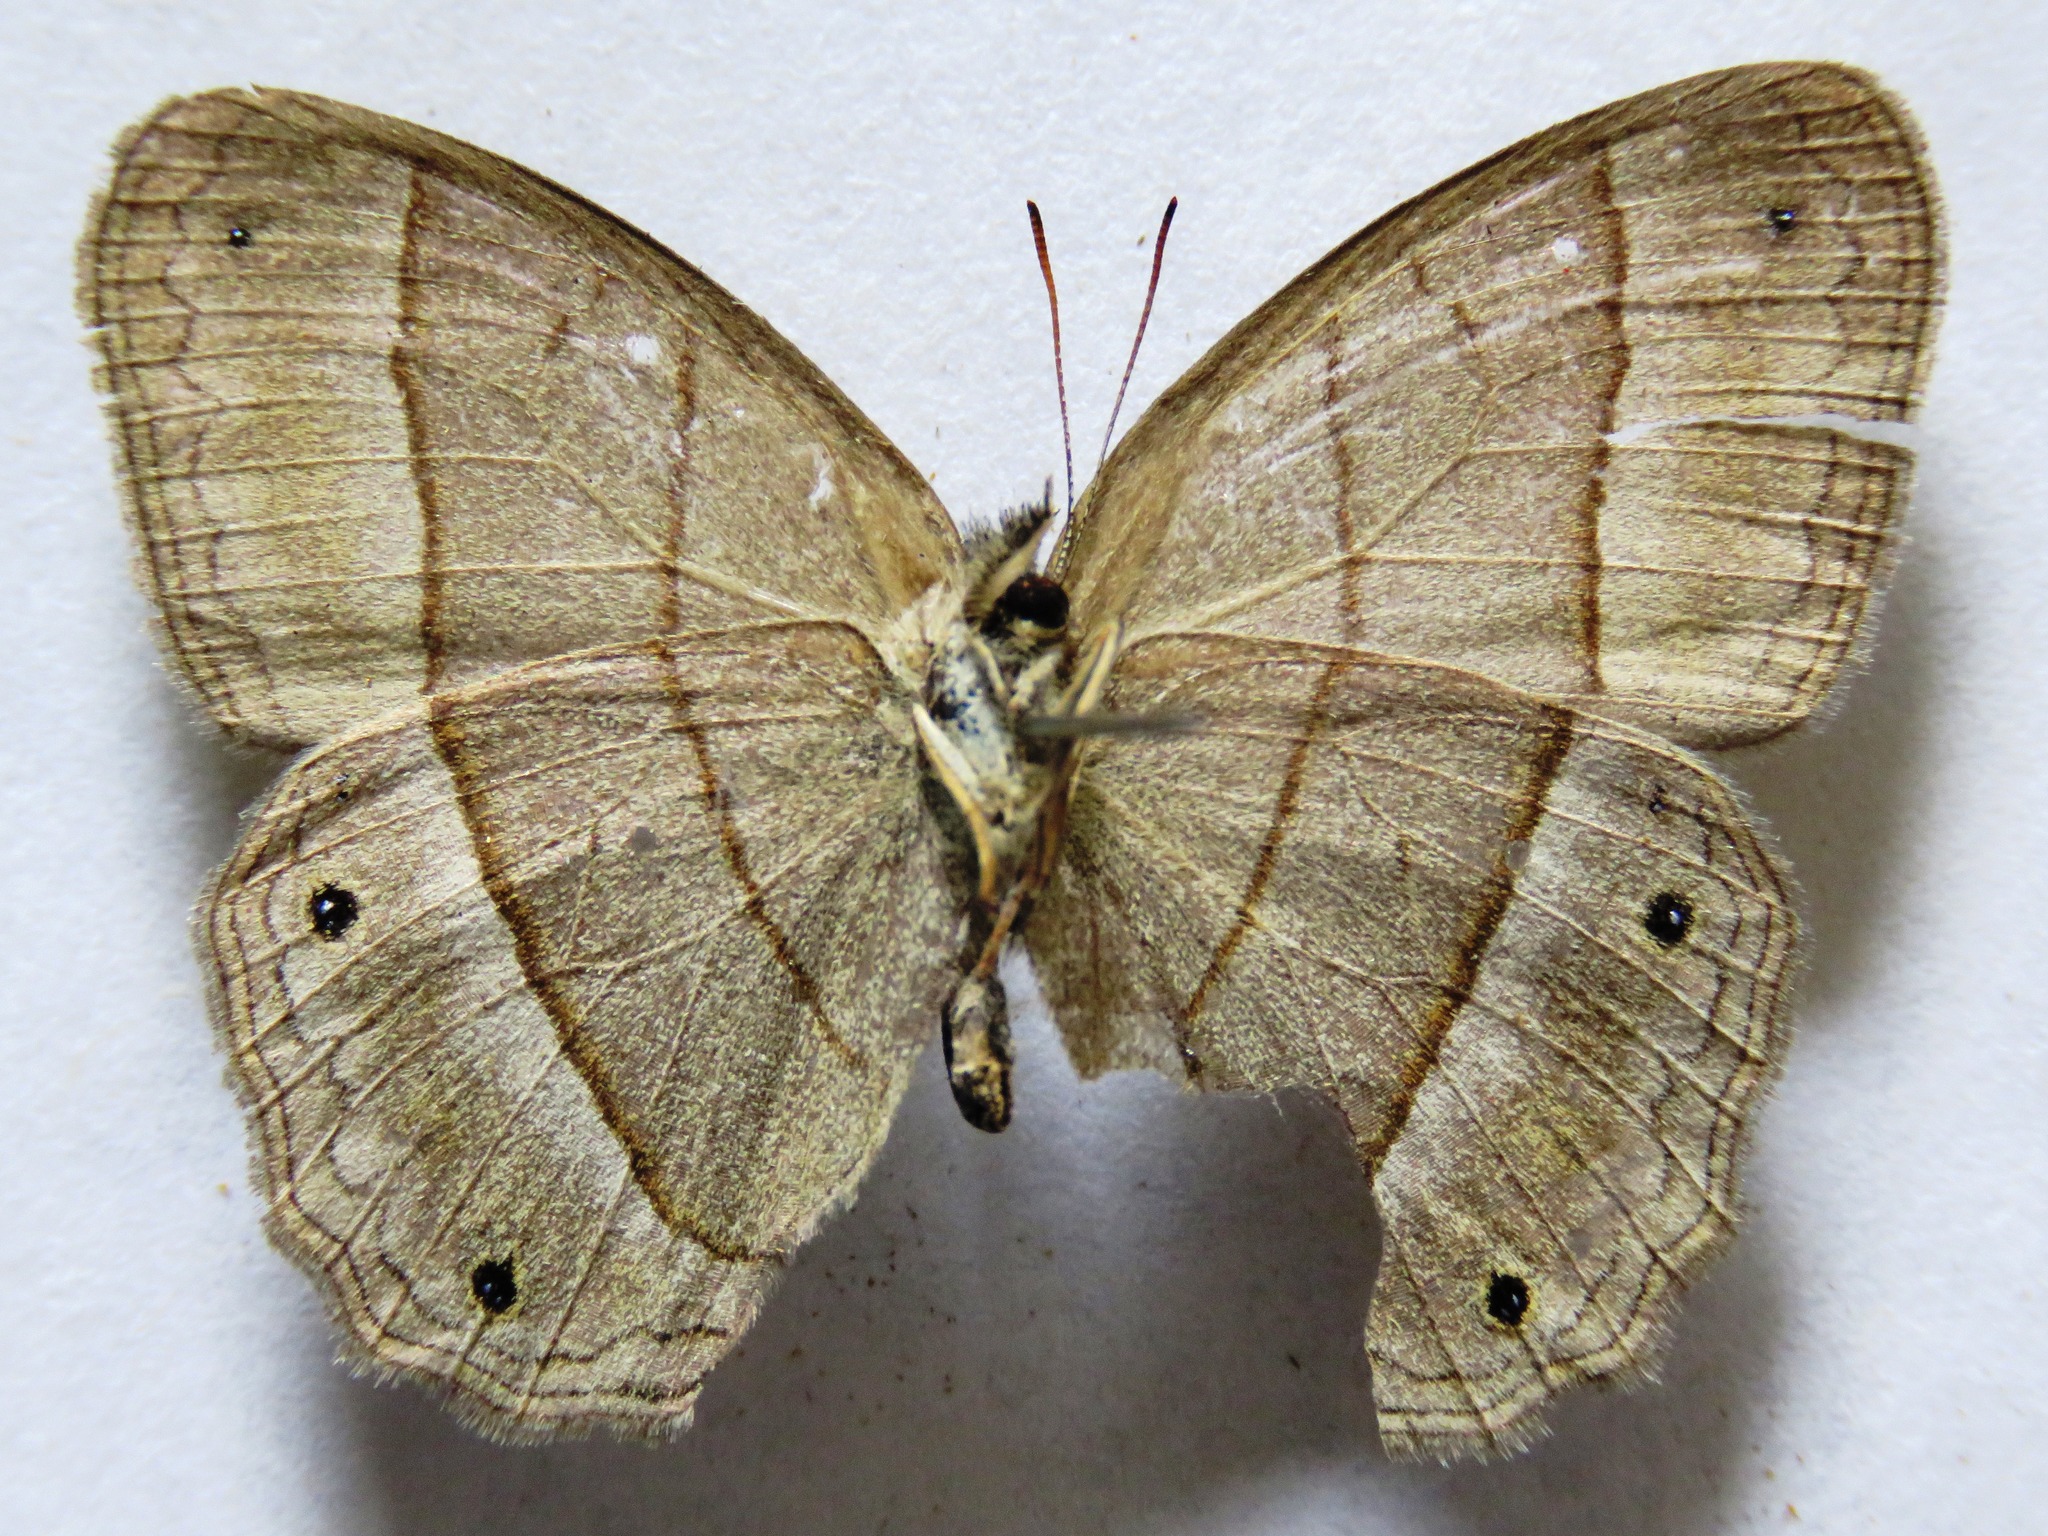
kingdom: Animalia
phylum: Arthropoda
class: Insecta
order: Lepidoptera
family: Nymphalidae
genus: Euptychia
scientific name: Euptychia Cissia pompilia
